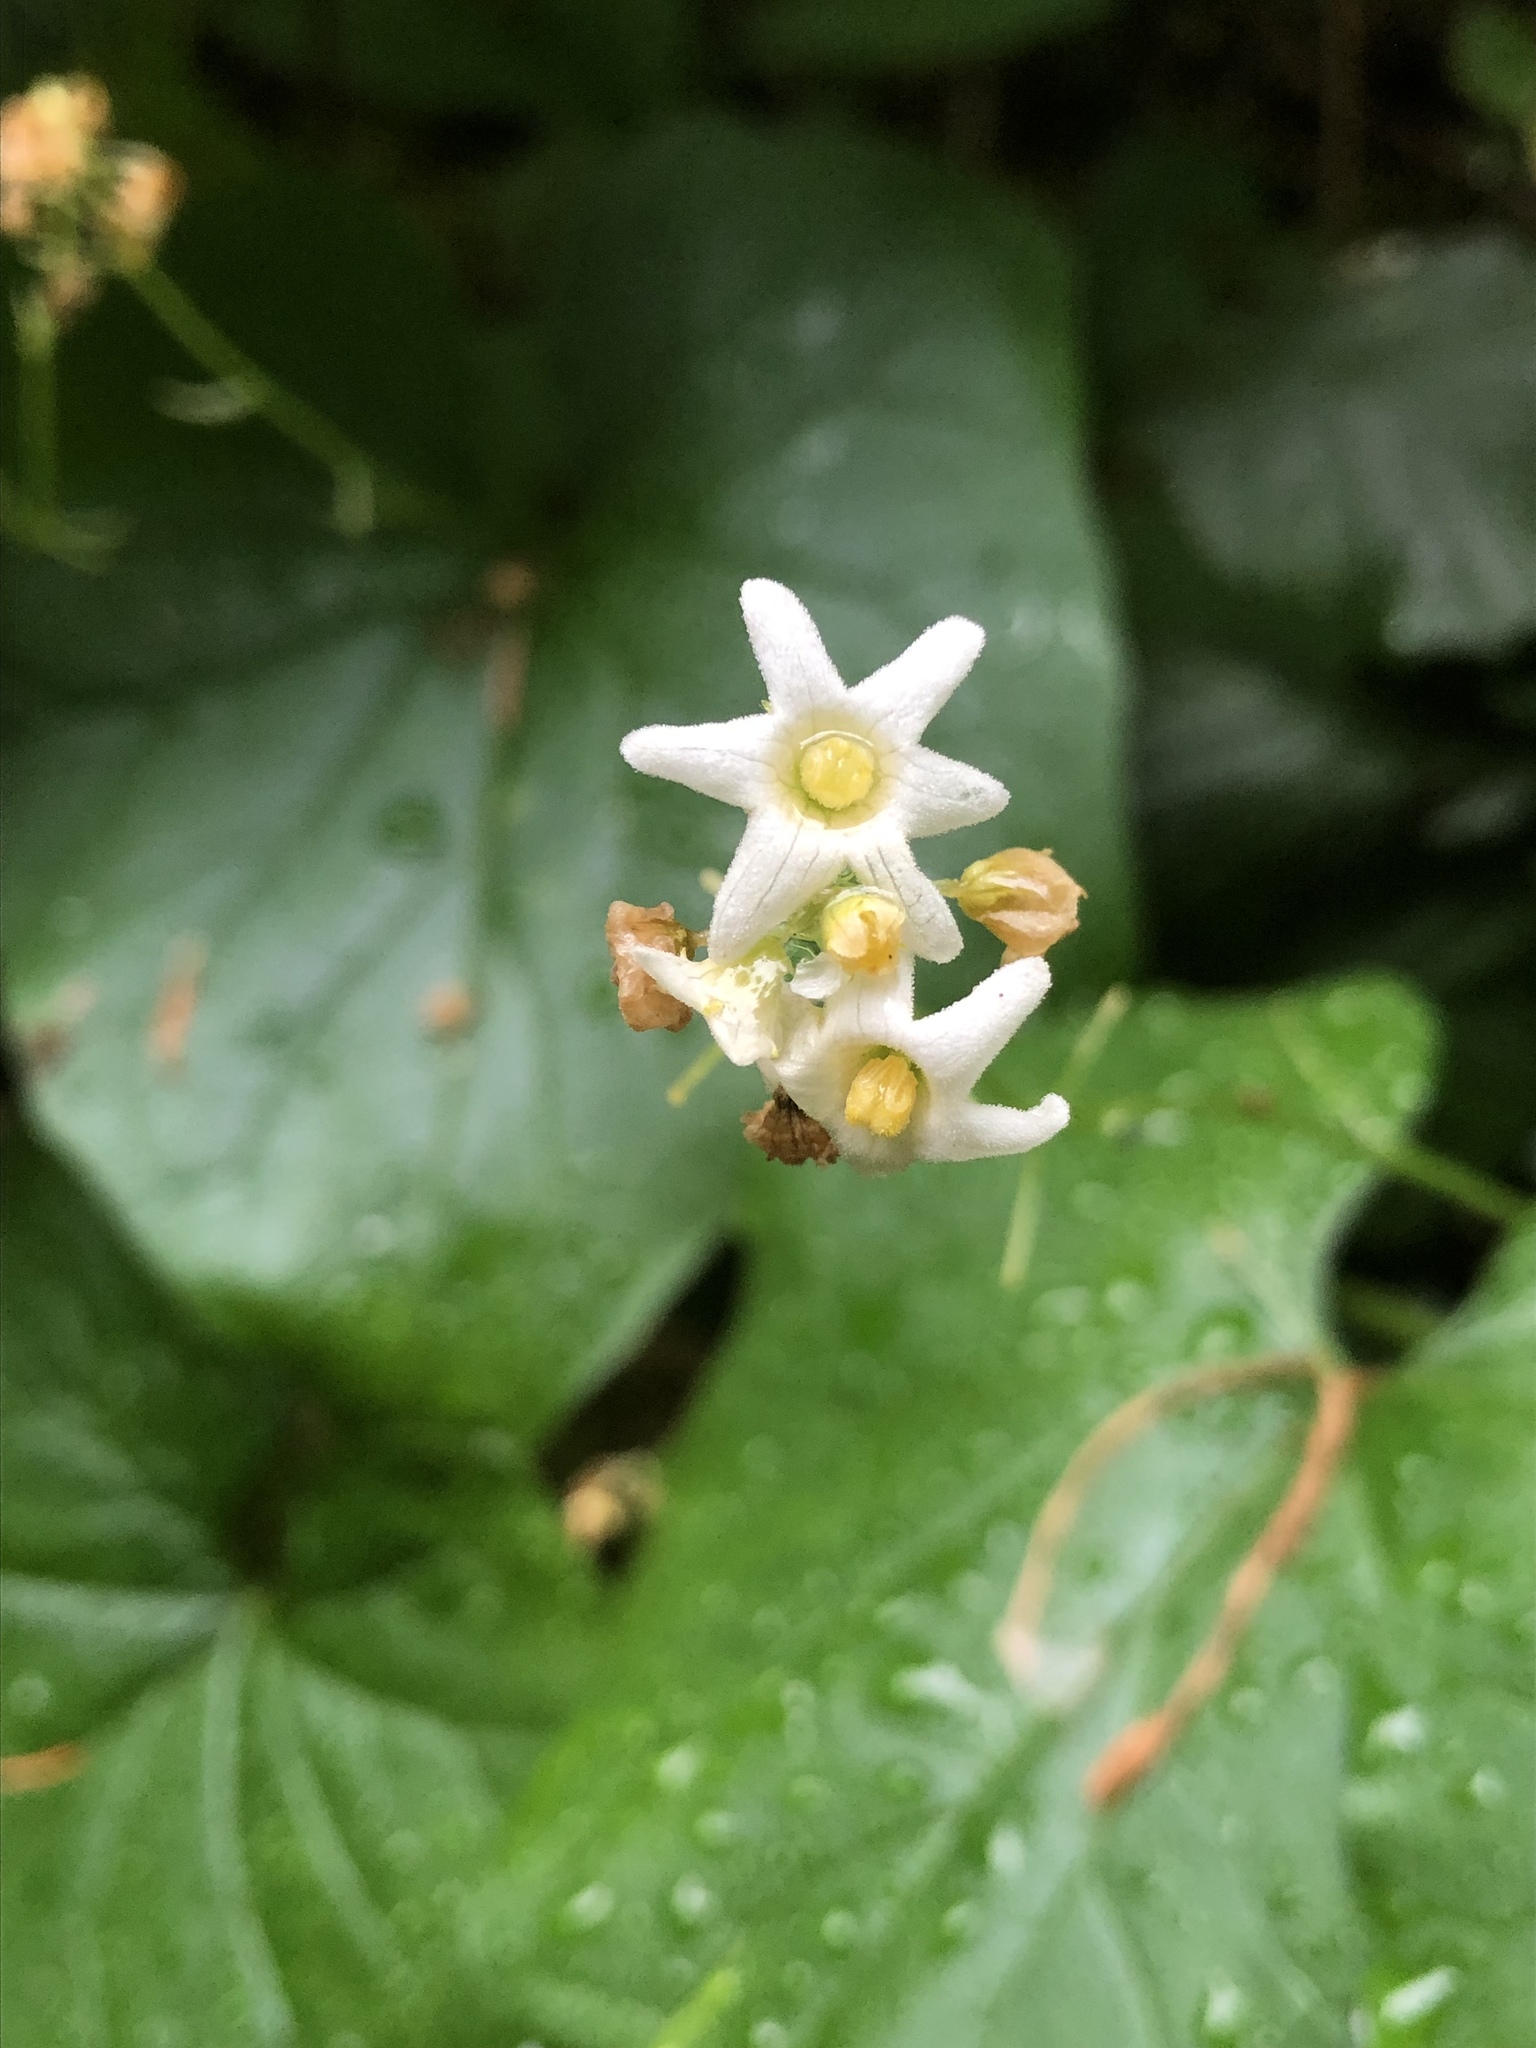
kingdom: Plantae
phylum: Tracheophyta
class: Magnoliopsida
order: Cucurbitales
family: Cucurbitaceae
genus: Marah
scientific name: Marah oregana
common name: Coastal manroot
